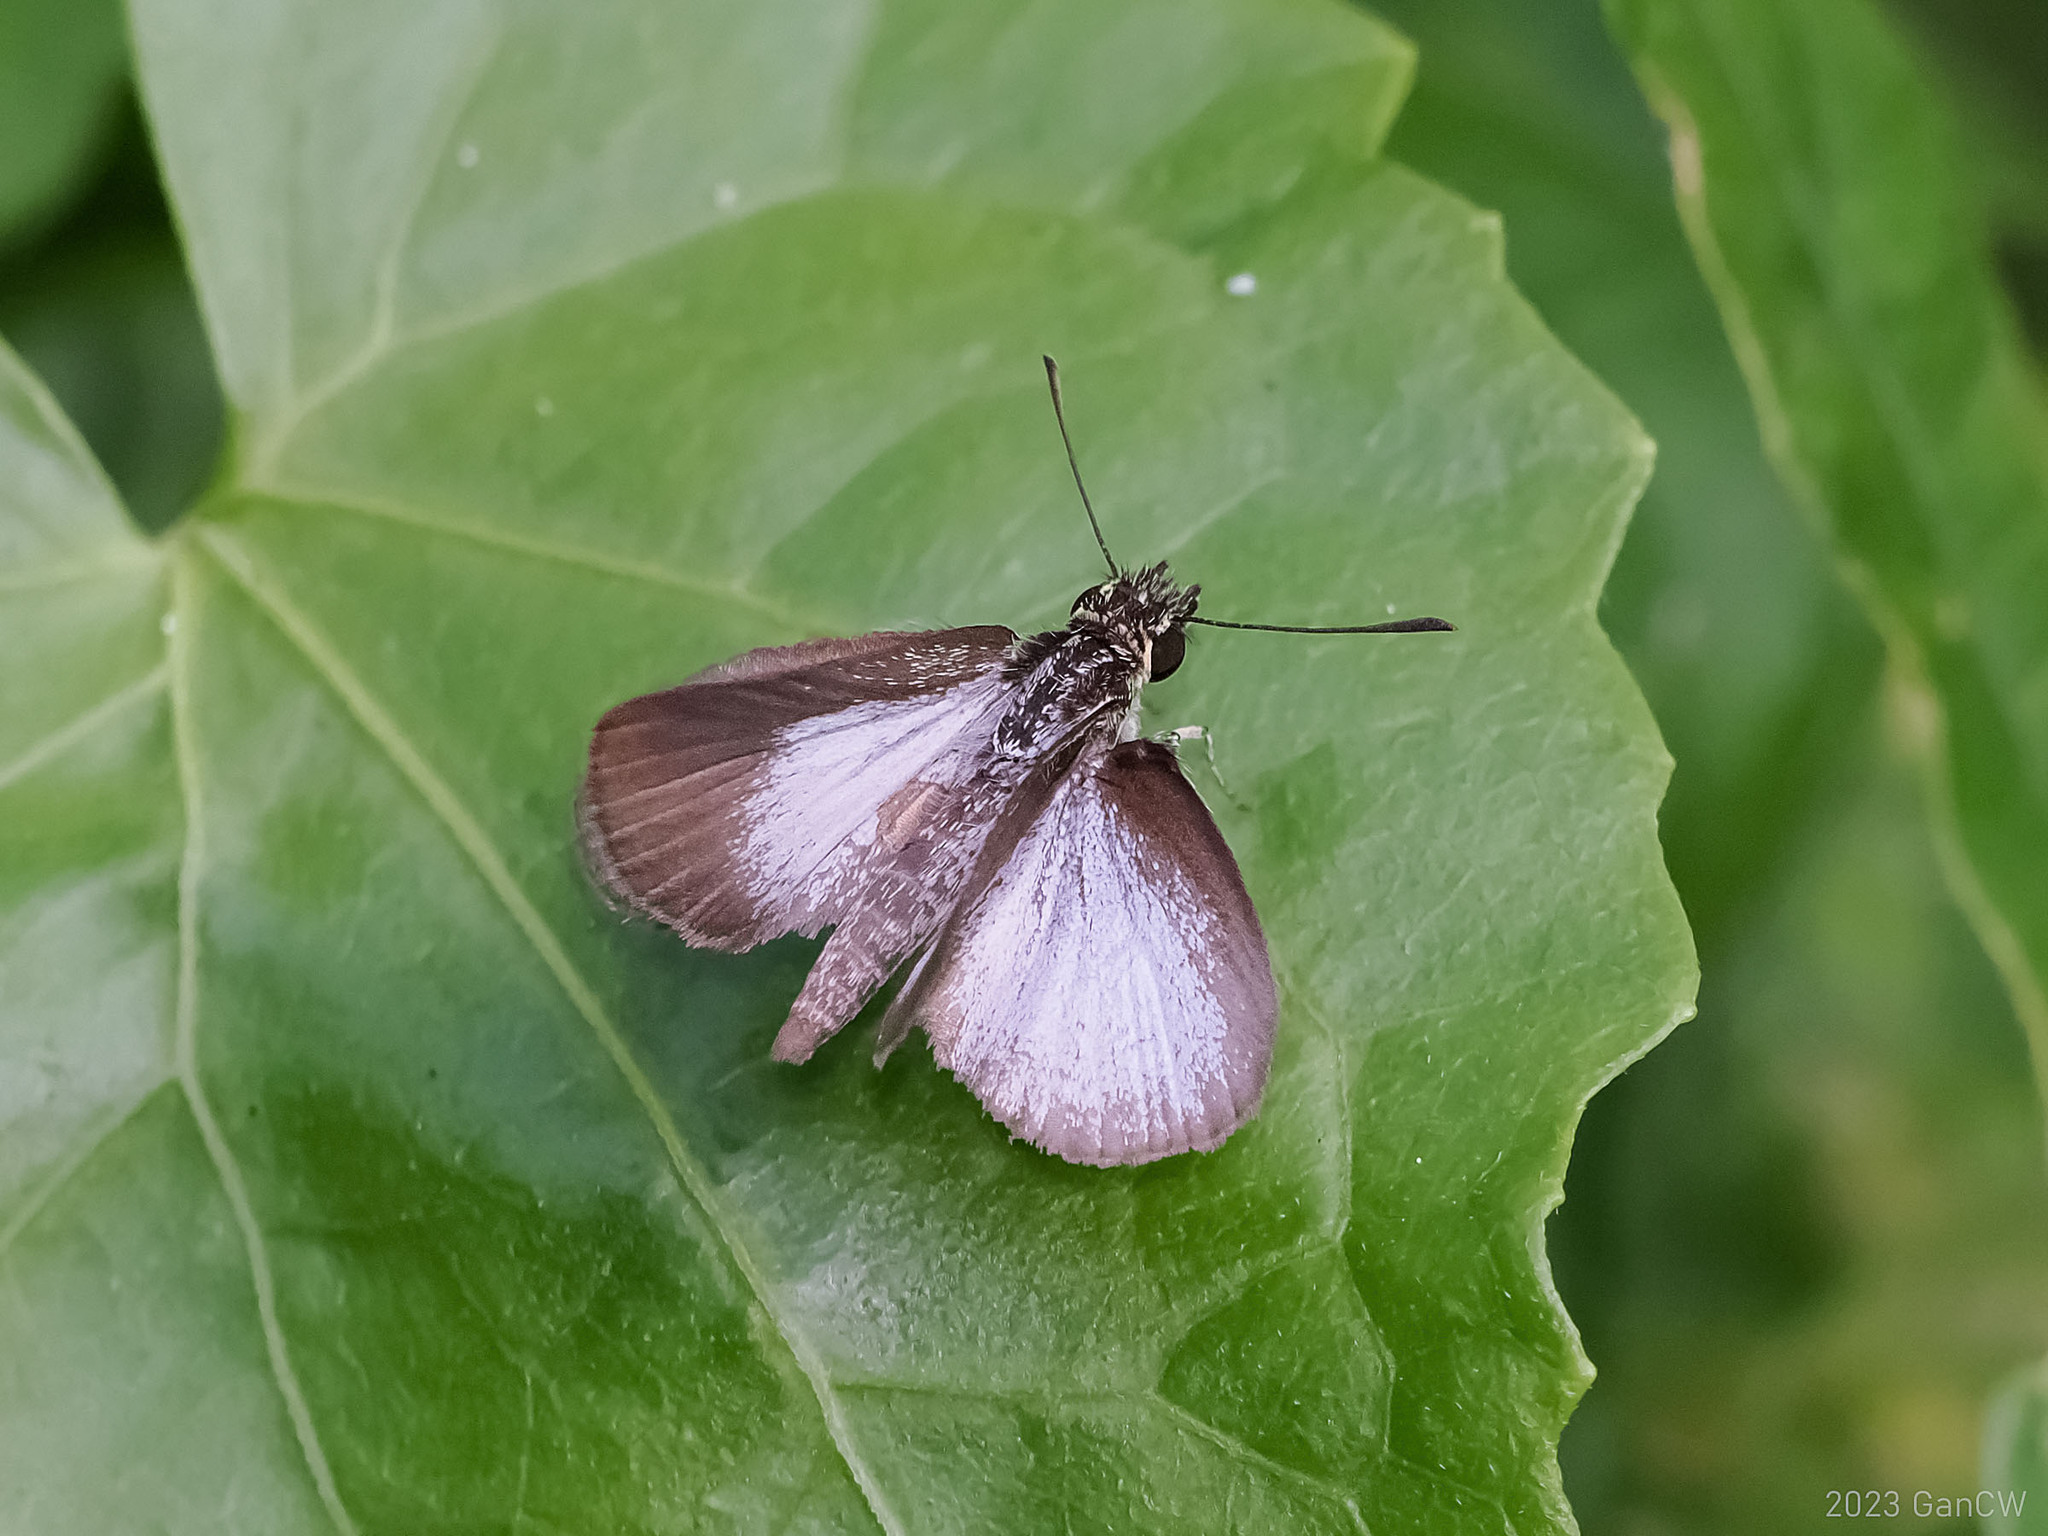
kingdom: Animalia
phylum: Arthropoda
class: Insecta
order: Lepidoptera
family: Hesperiidae
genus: Aeromachus
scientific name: Aeromachus plumbeola
